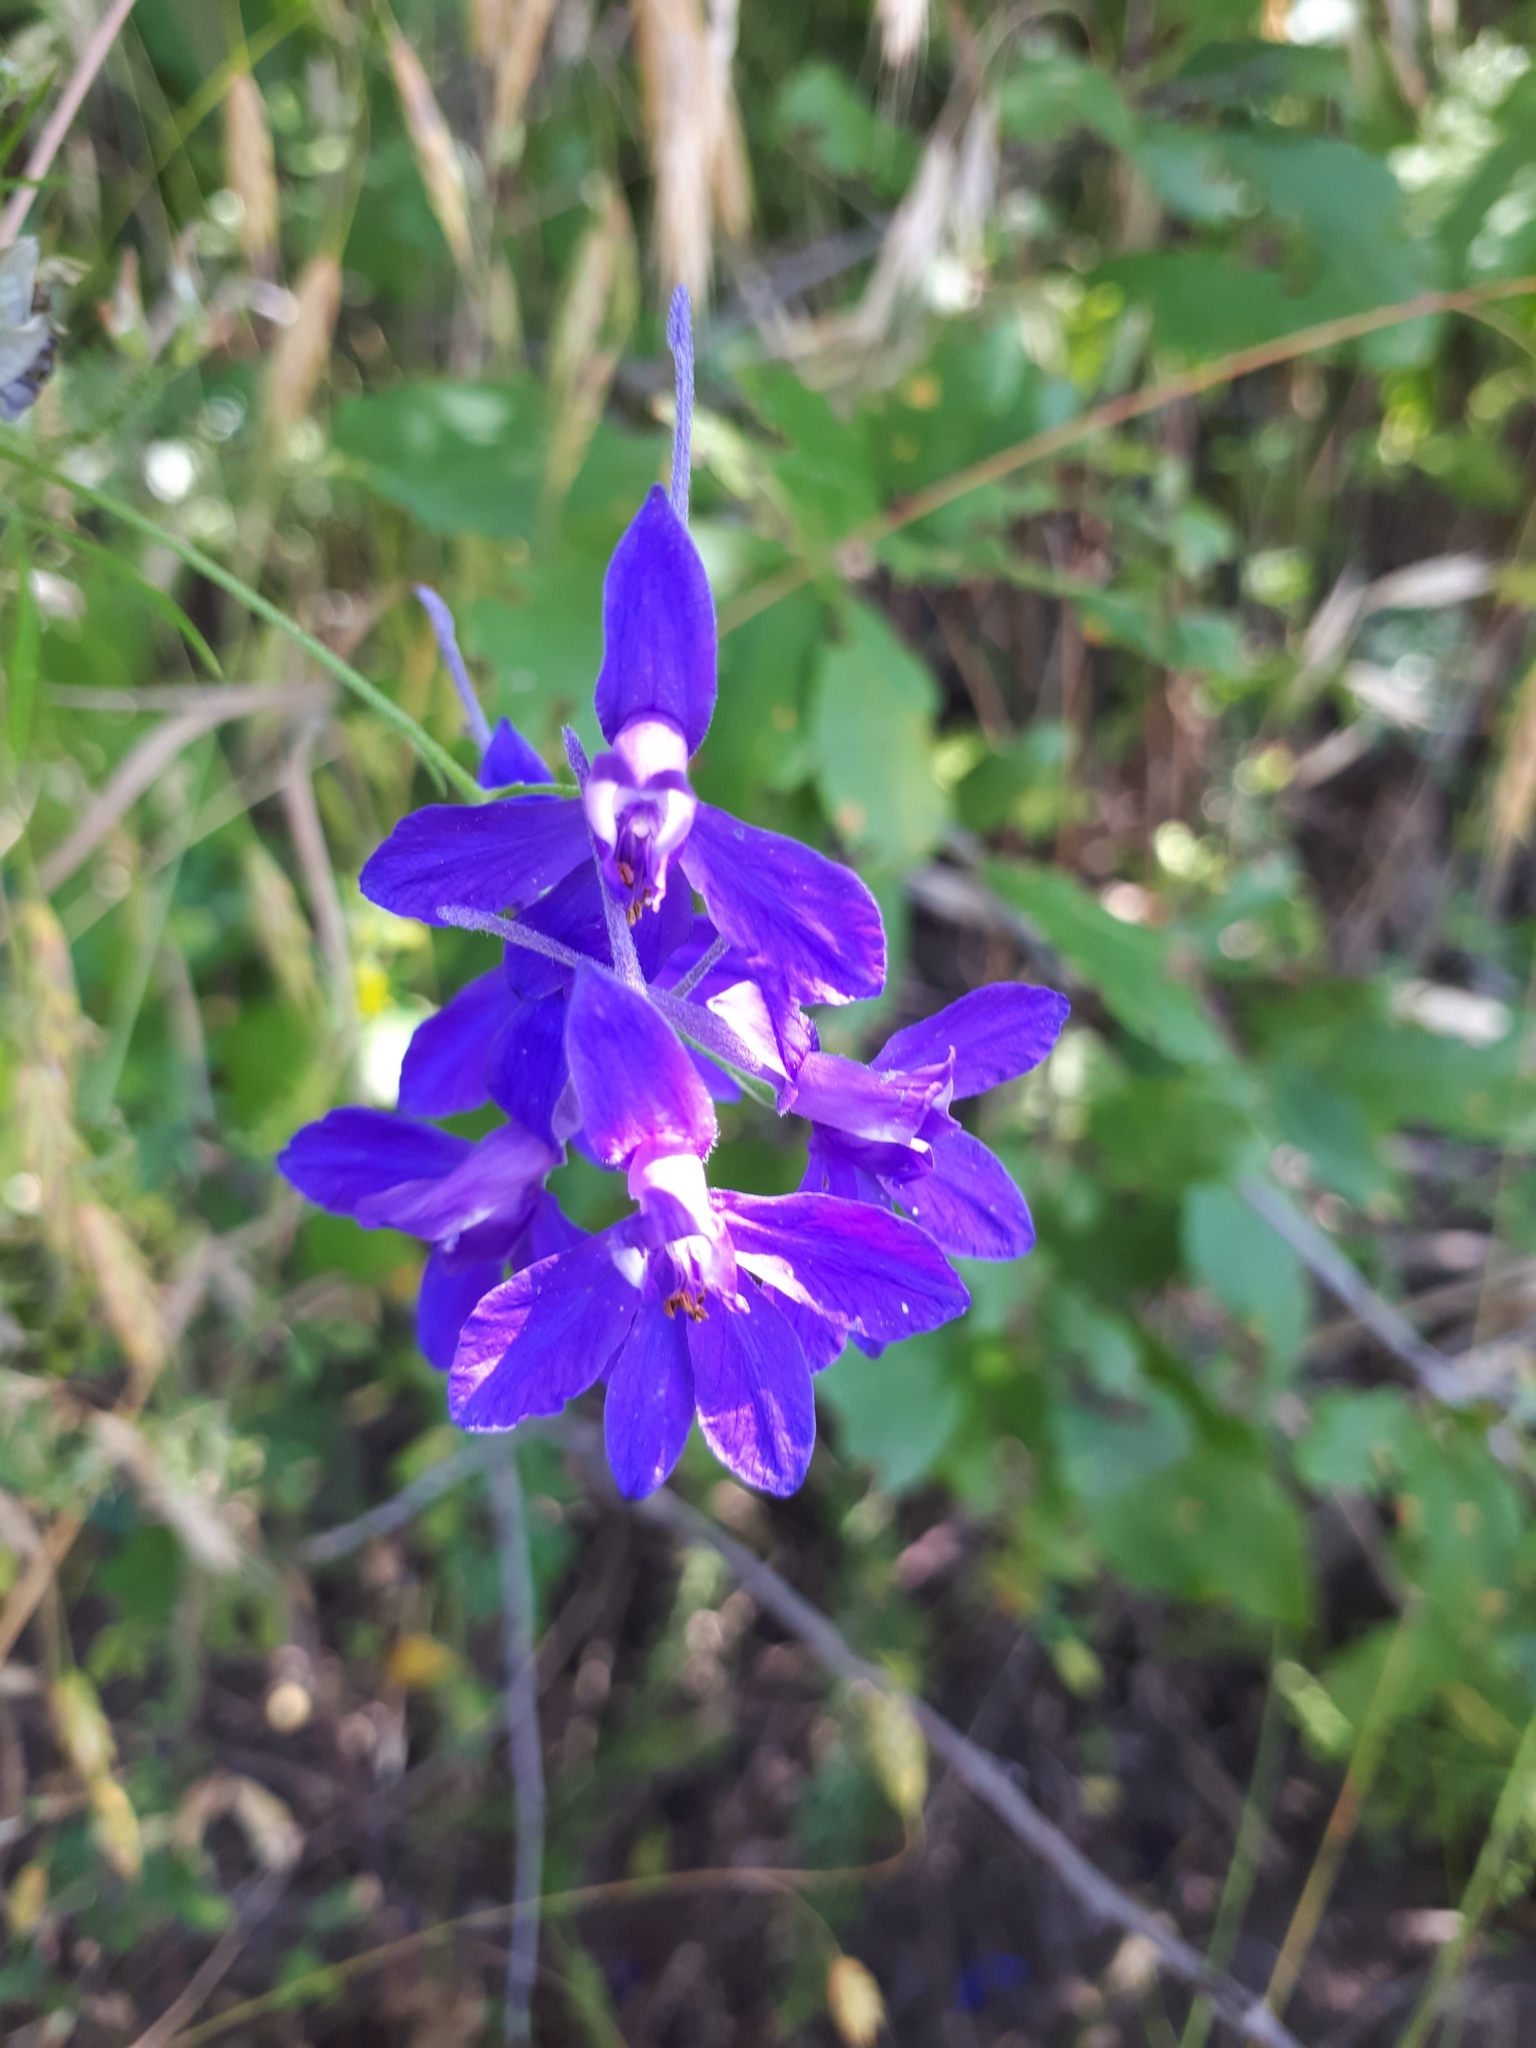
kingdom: Plantae
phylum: Tracheophyta
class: Magnoliopsida
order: Ranunculales
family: Ranunculaceae
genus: Delphinium
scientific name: Delphinium consolida
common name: Branching larkspur
